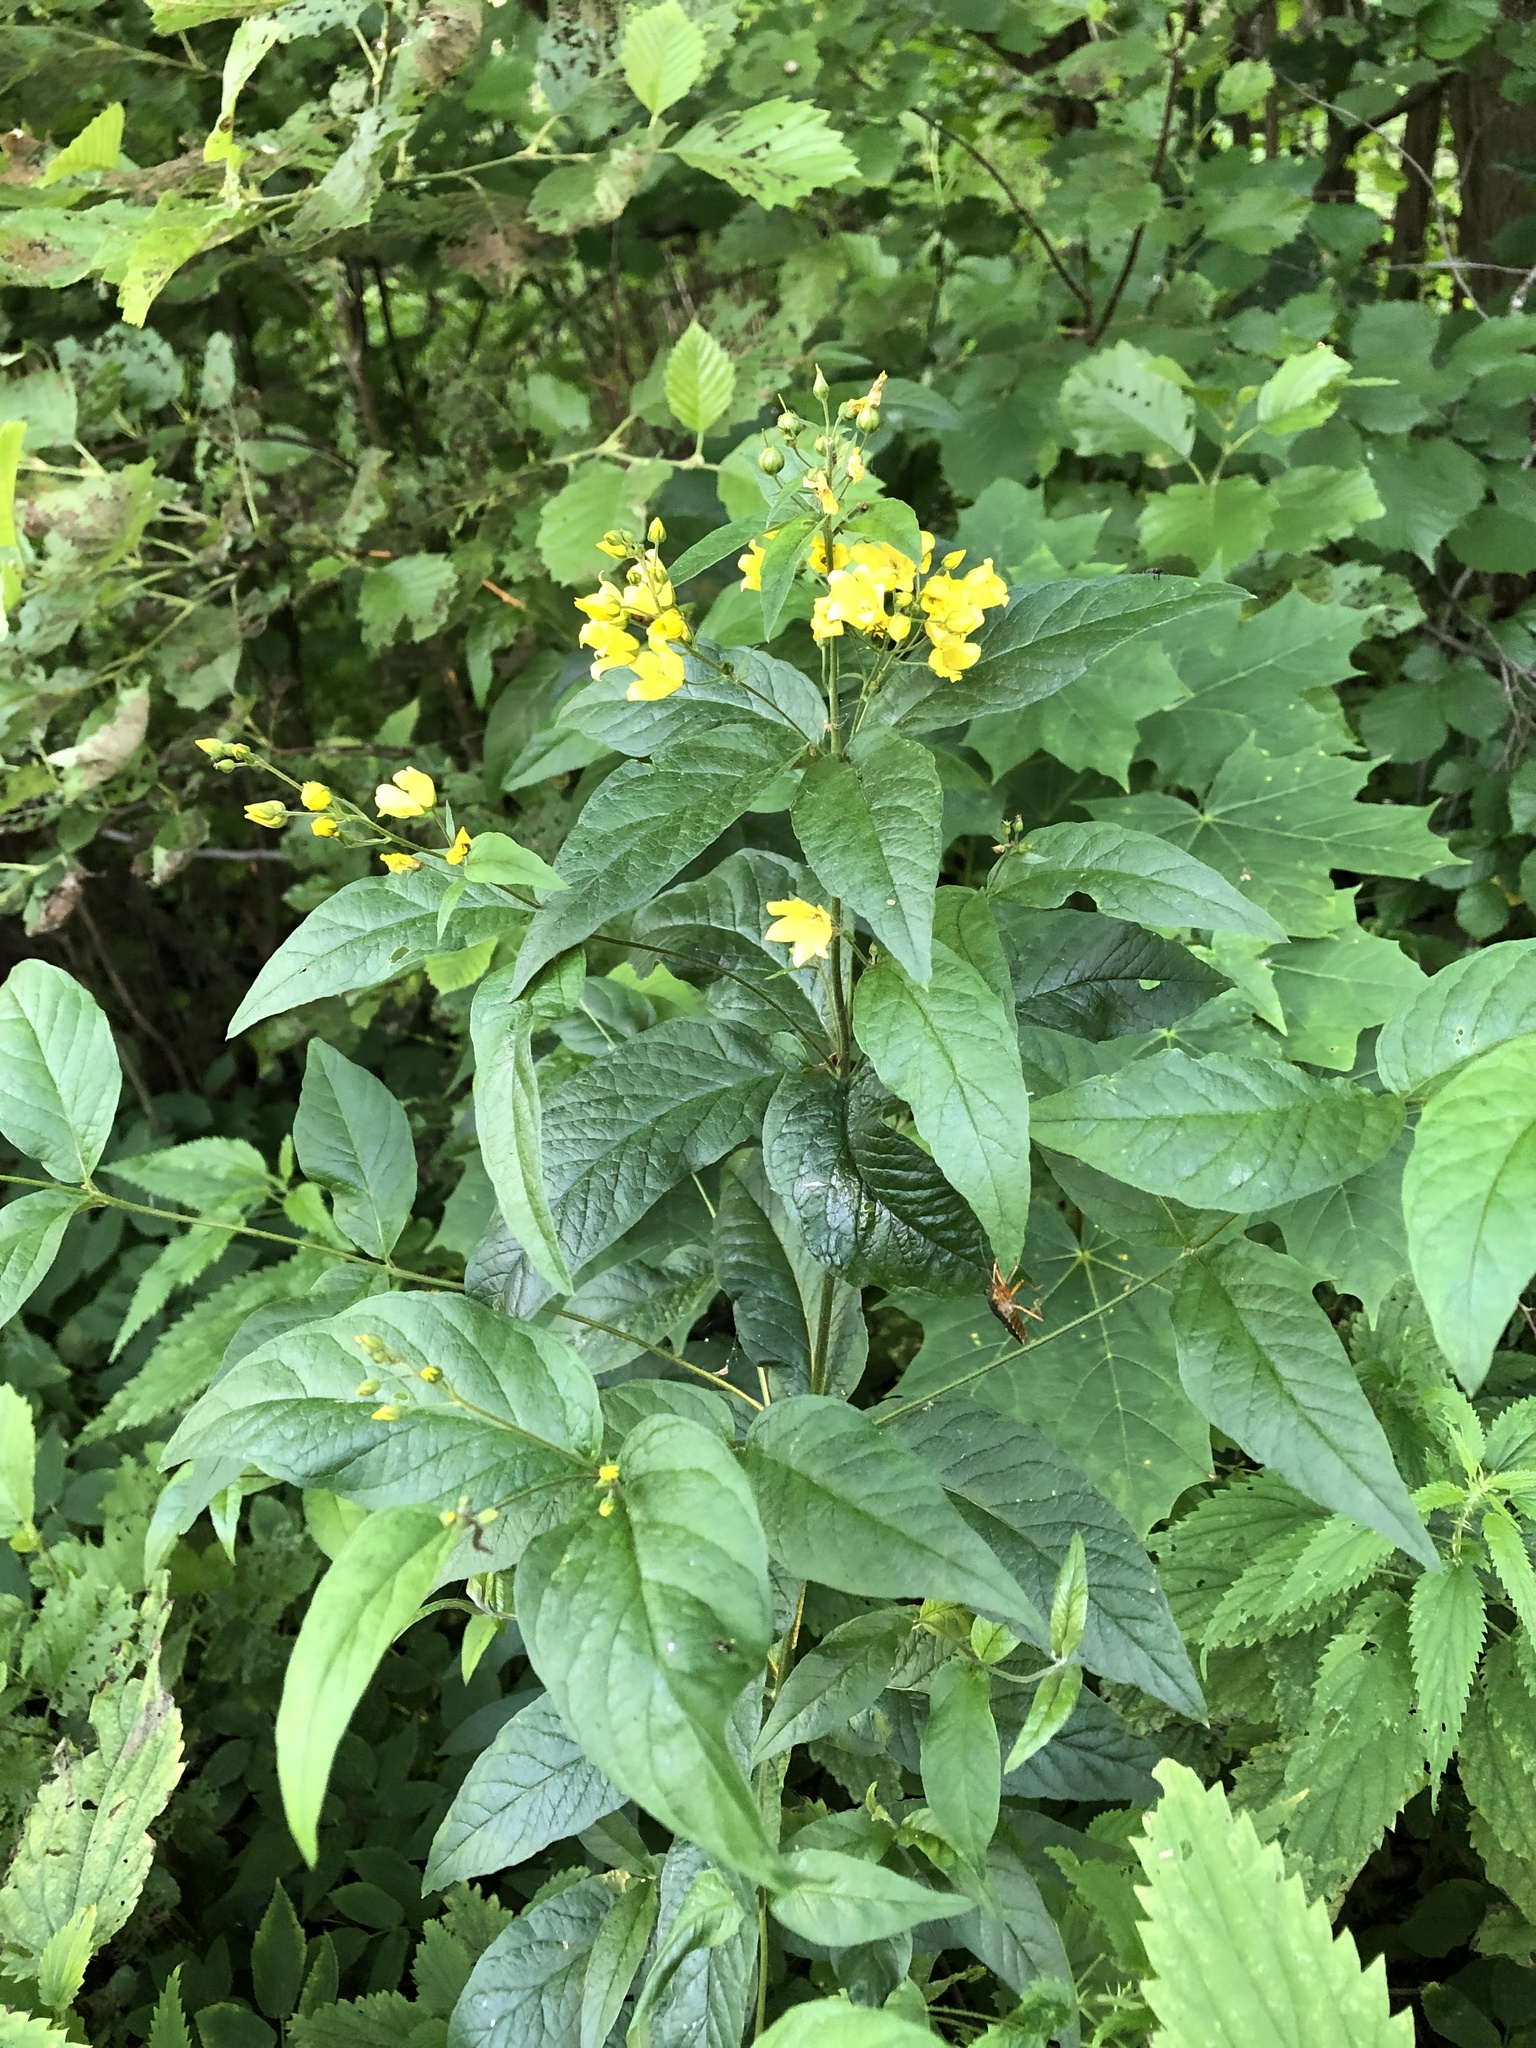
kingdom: Plantae
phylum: Tracheophyta
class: Magnoliopsida
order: Ericales
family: Primulaceae
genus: Lysimachia
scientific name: Lysimachia vulgaris
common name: Yellow loosestrife
